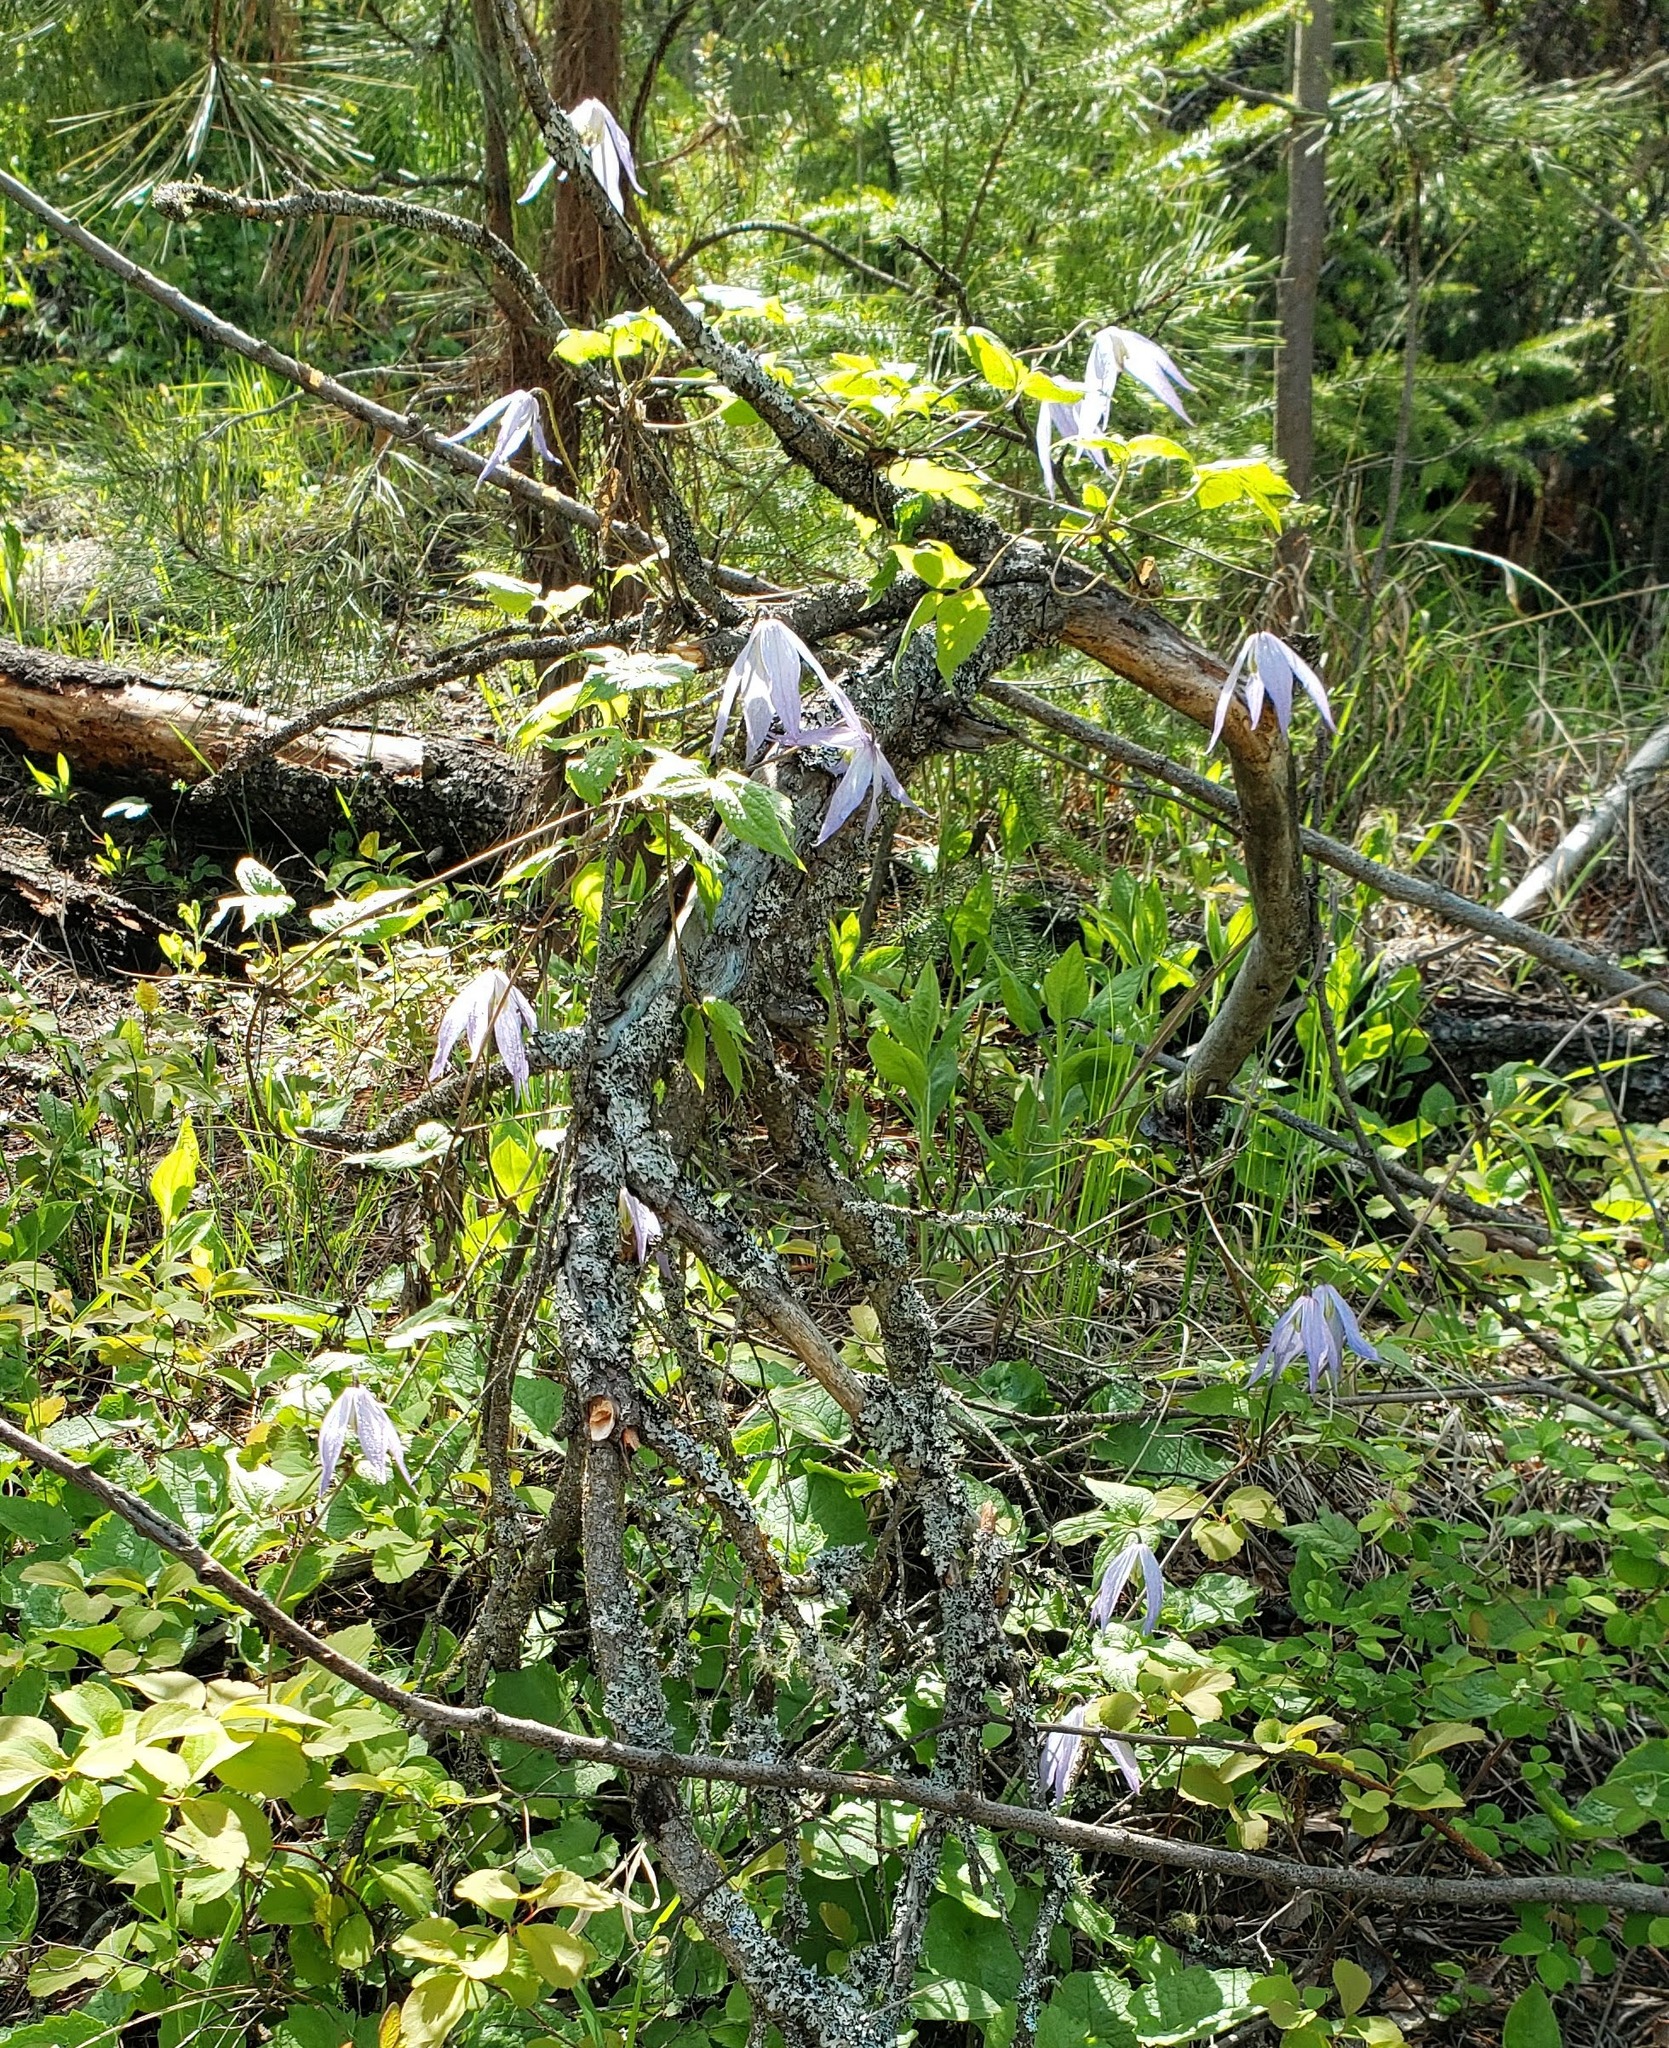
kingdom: Plantae
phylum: Tracheophyta
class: Magnoliopsida
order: Ranunculales
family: Ranunculaceae
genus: Clematis
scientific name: Clematis occidentalis
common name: Purple clematis
